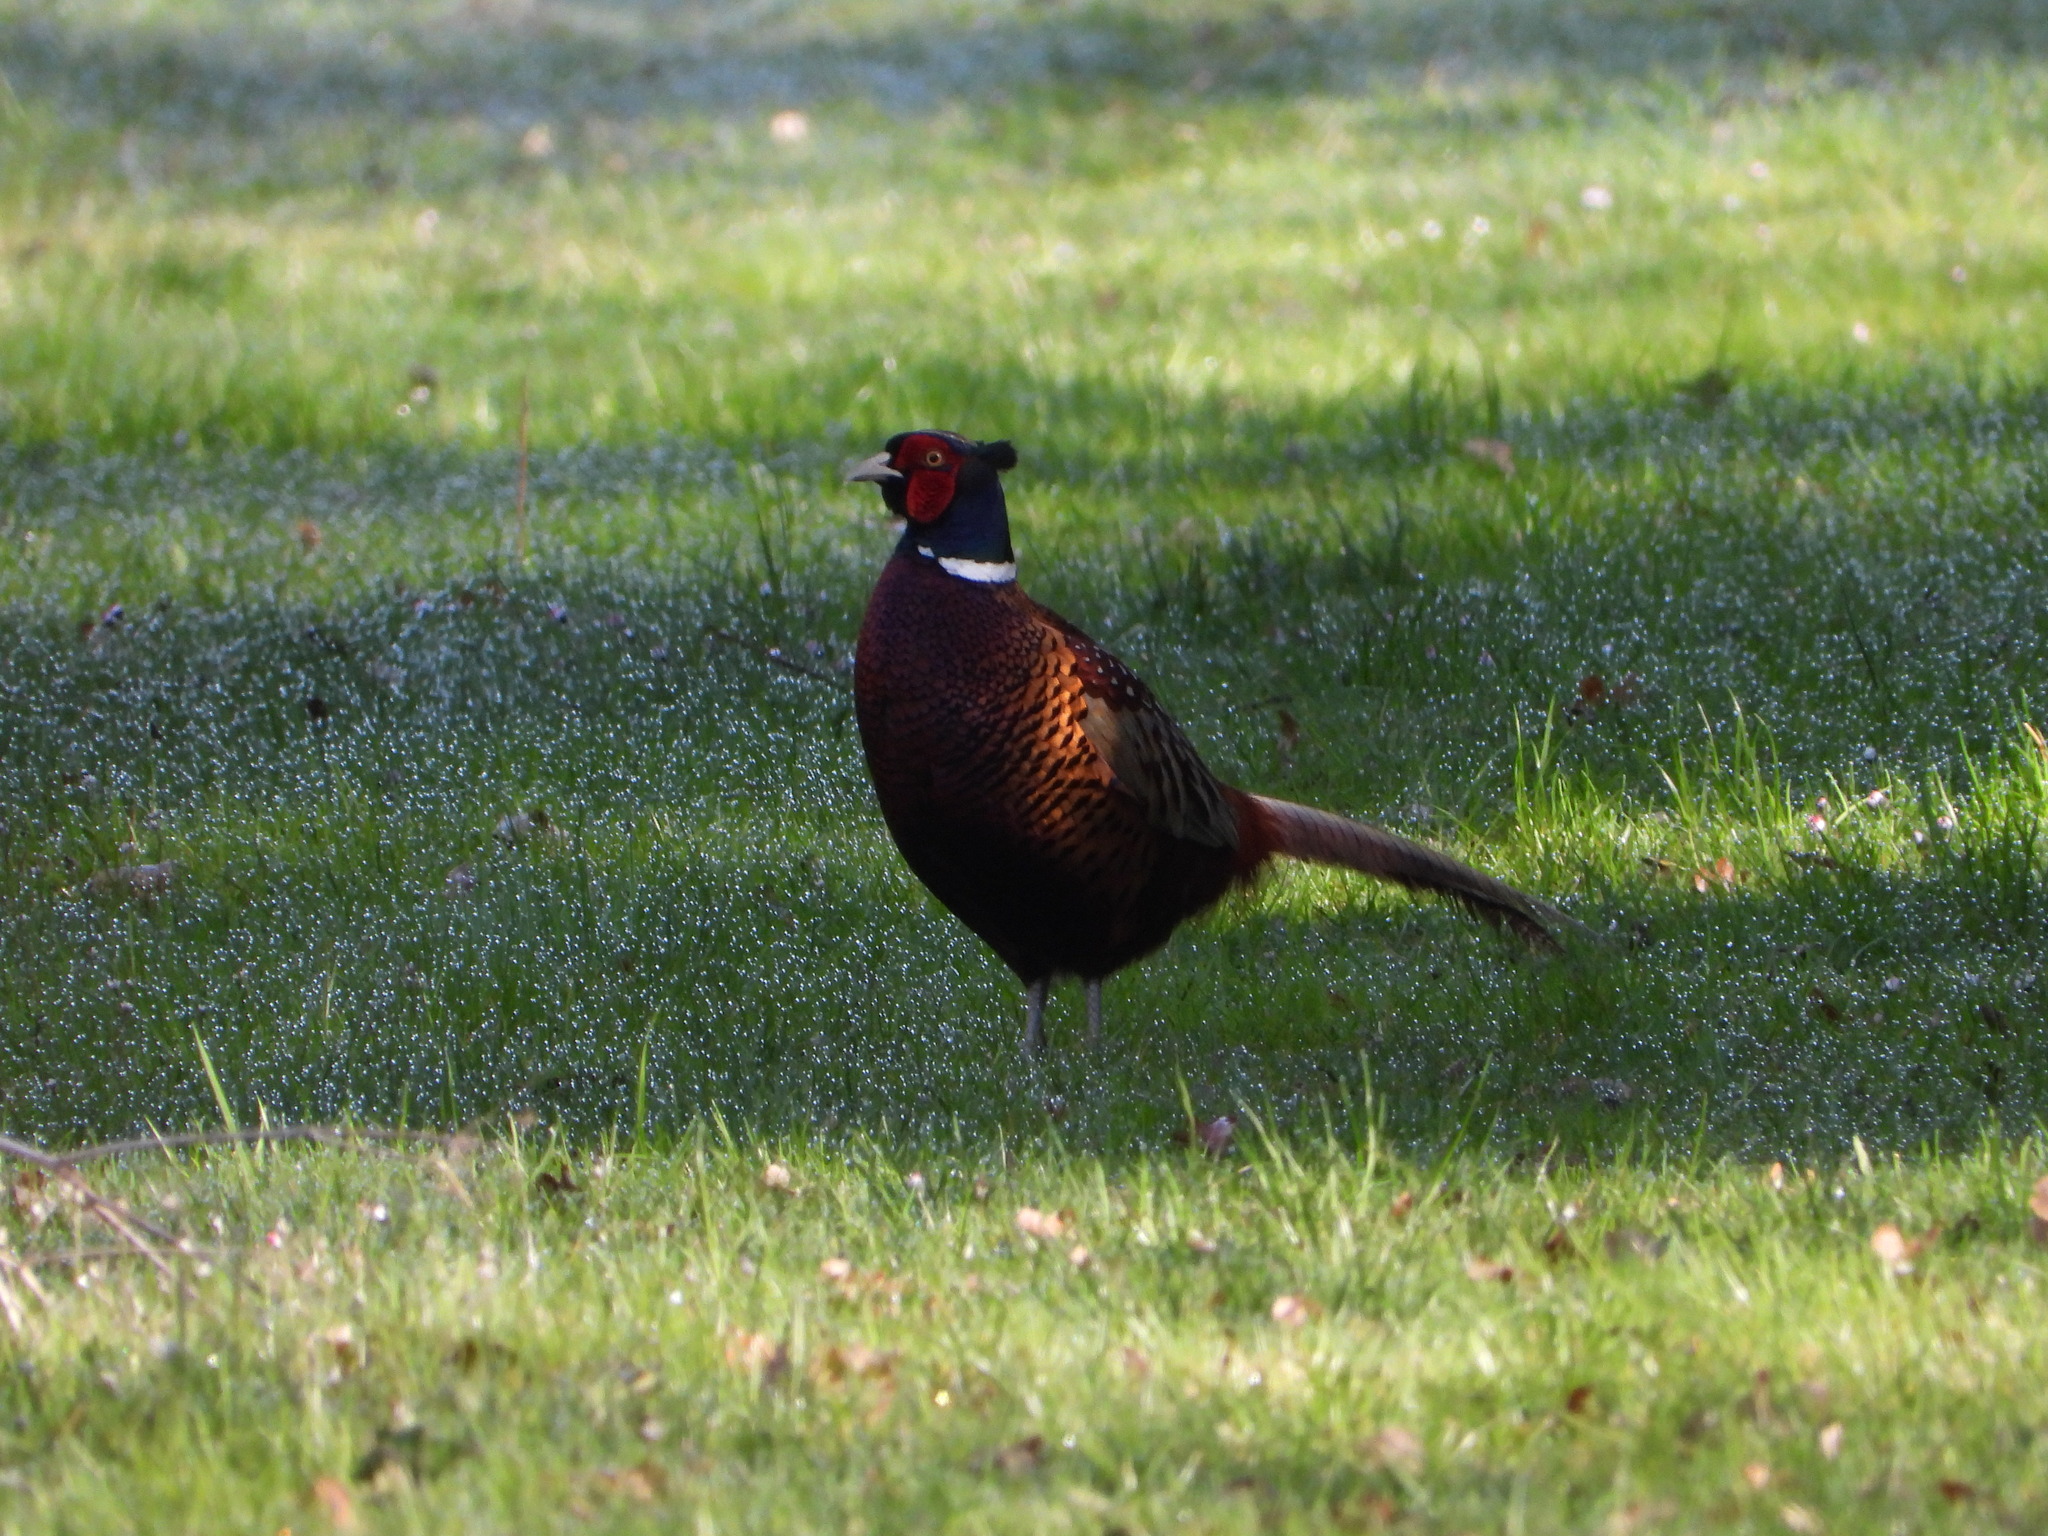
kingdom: Animalia
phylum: Chordata
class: Aves
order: Galliformes
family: Phasianidae
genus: Phasianus
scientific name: Phasianus colchicus
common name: Common pheasant
